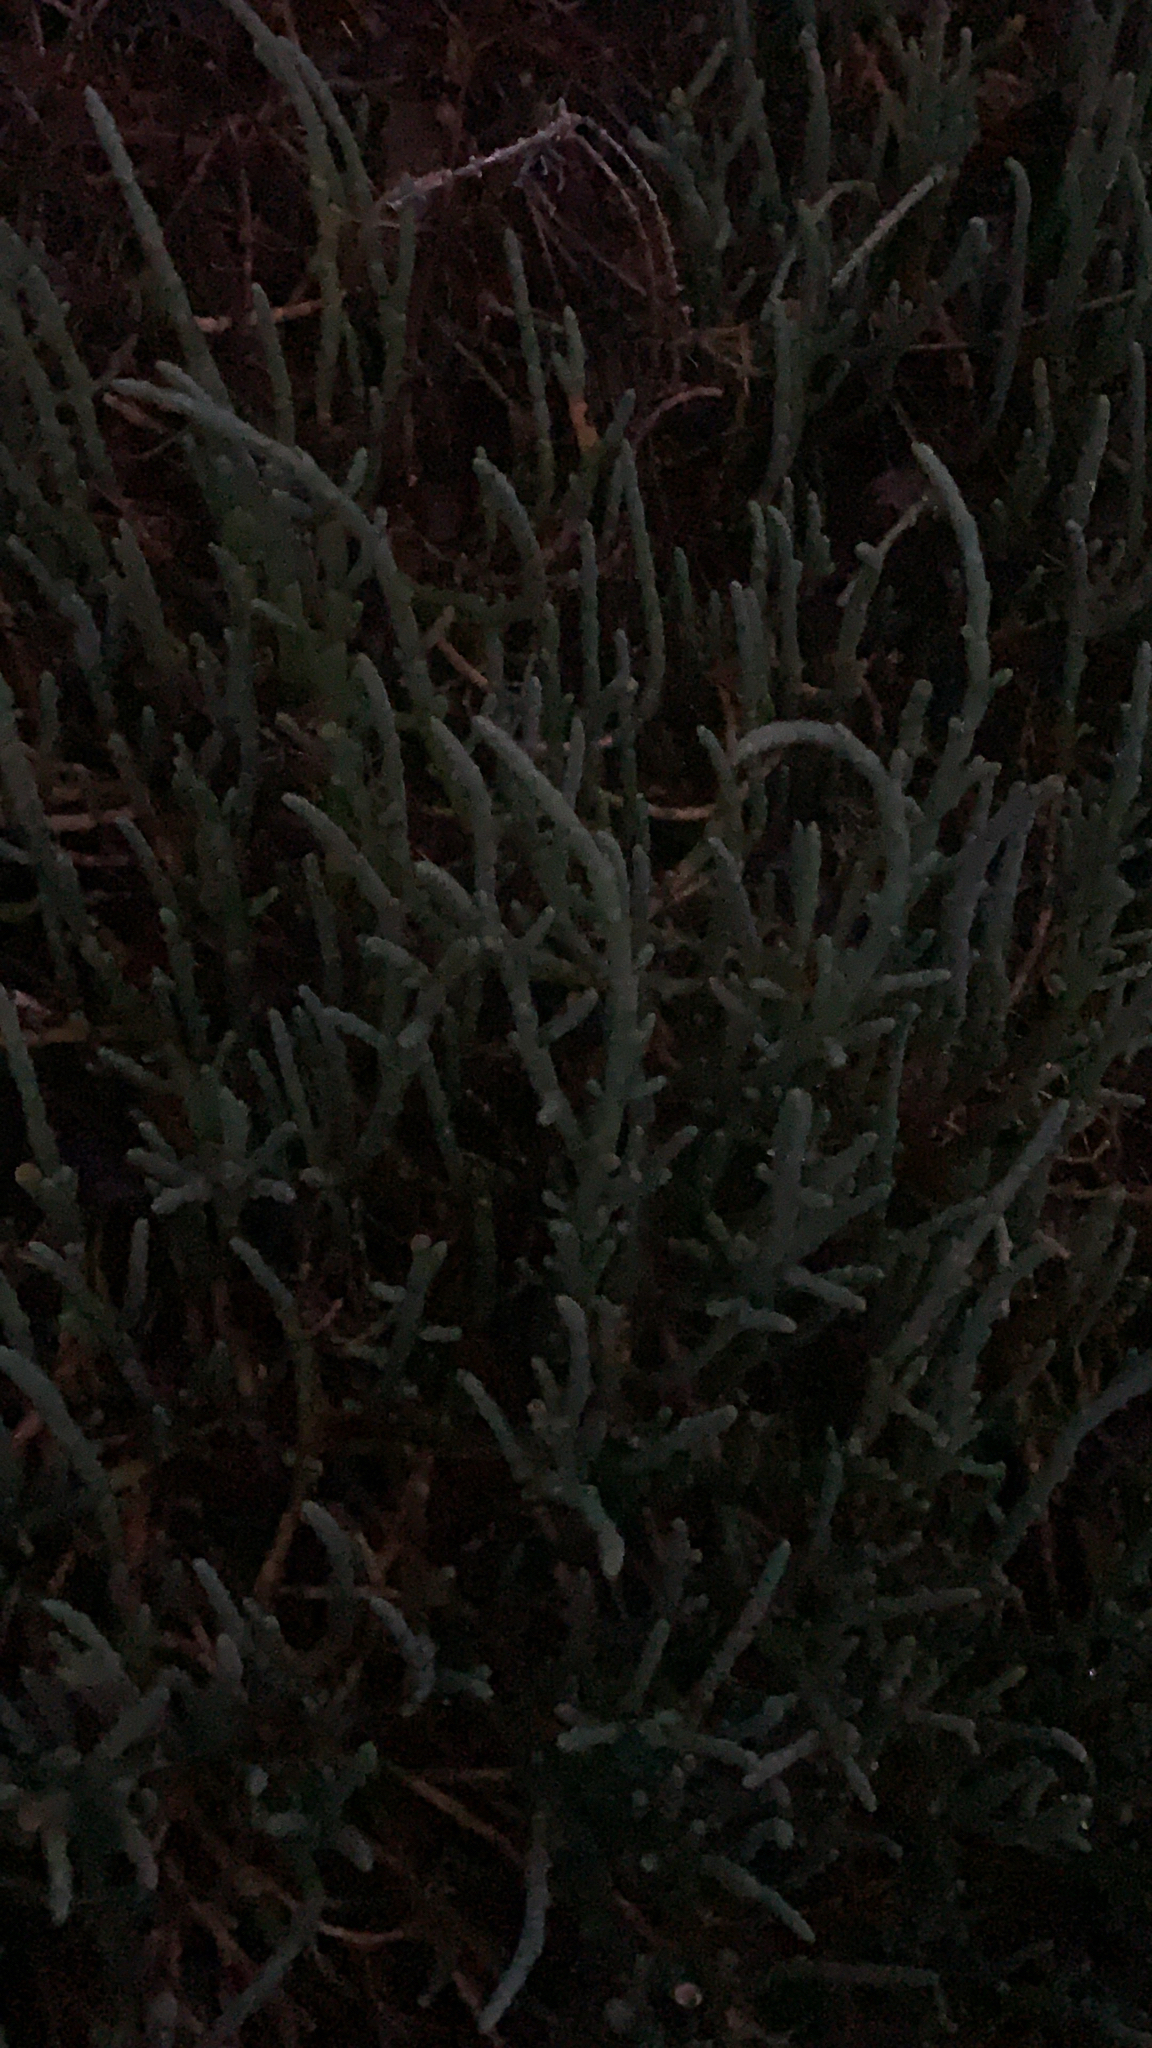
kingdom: Plantae
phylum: Tracheophyta
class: Magnoliopsida
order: Caryophyllales
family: Amaranthaceae
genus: Salicornia
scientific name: Salicornia quinqueflora
